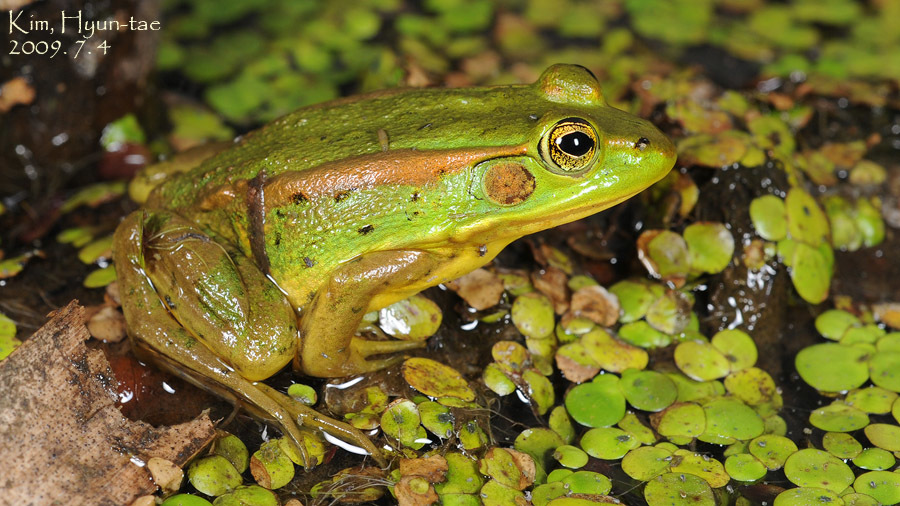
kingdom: Animalia
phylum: Chordata
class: Amphibia
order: Anura
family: Ranidae
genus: Pelophylax
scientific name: Pelophylax chosenicus
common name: Gold-spotted pond frog
